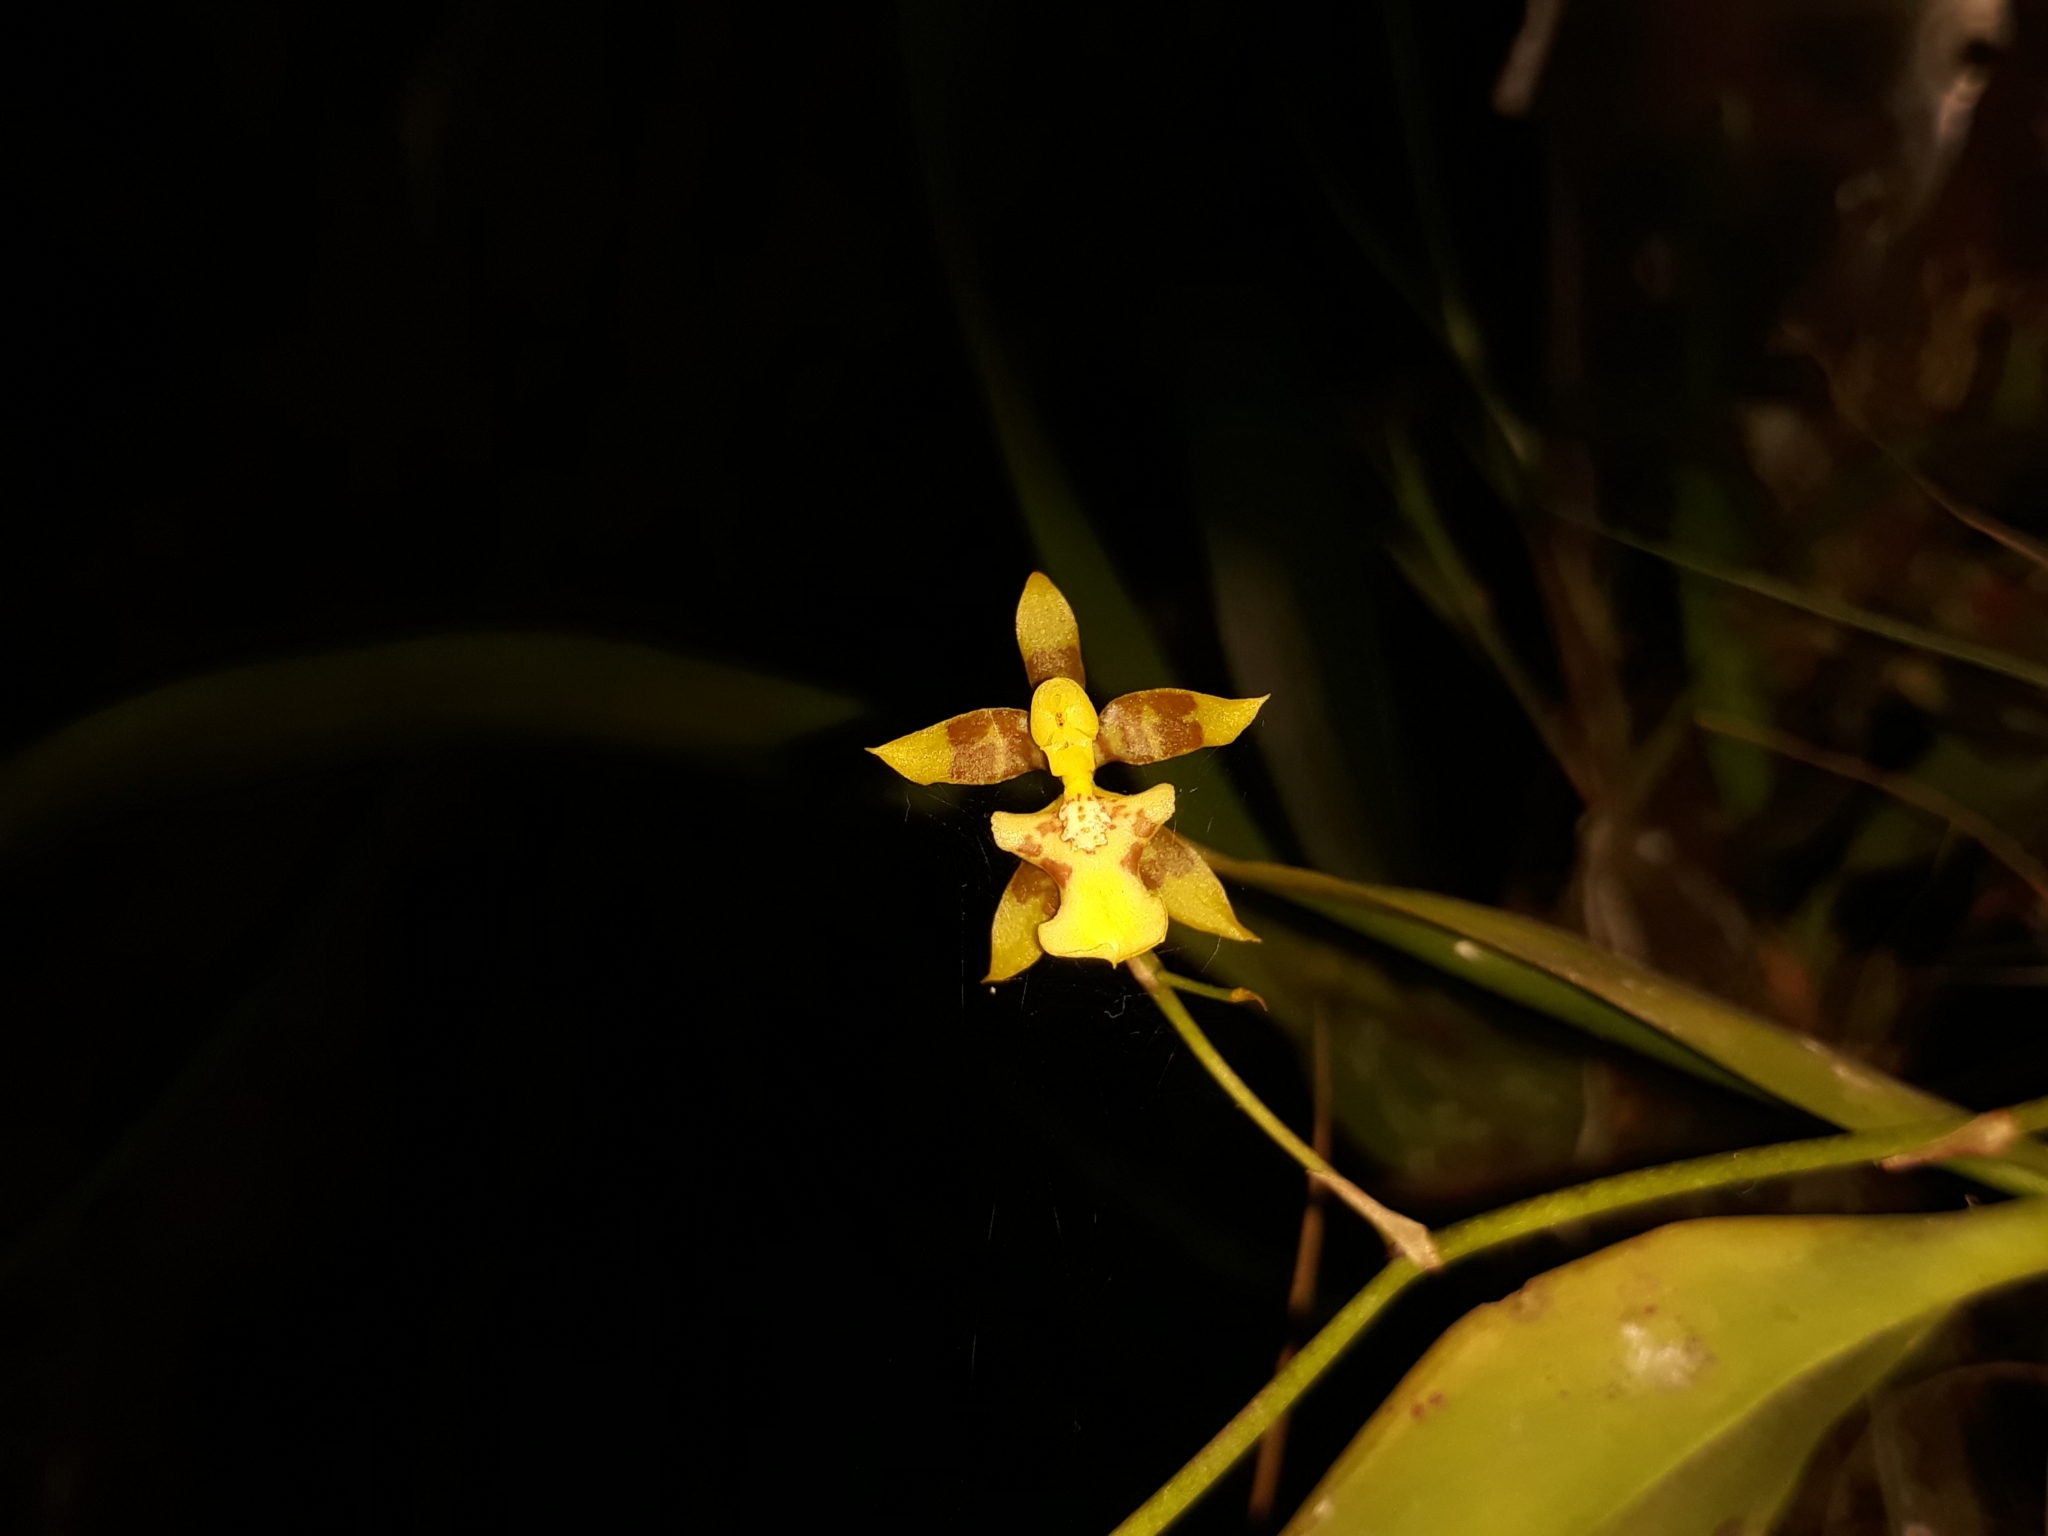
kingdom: Plantae
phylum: Tracheophyta
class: Liliopsida
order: Asparagales
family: Orchidaceae
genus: Oncidium
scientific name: Oncidium pergameneum
